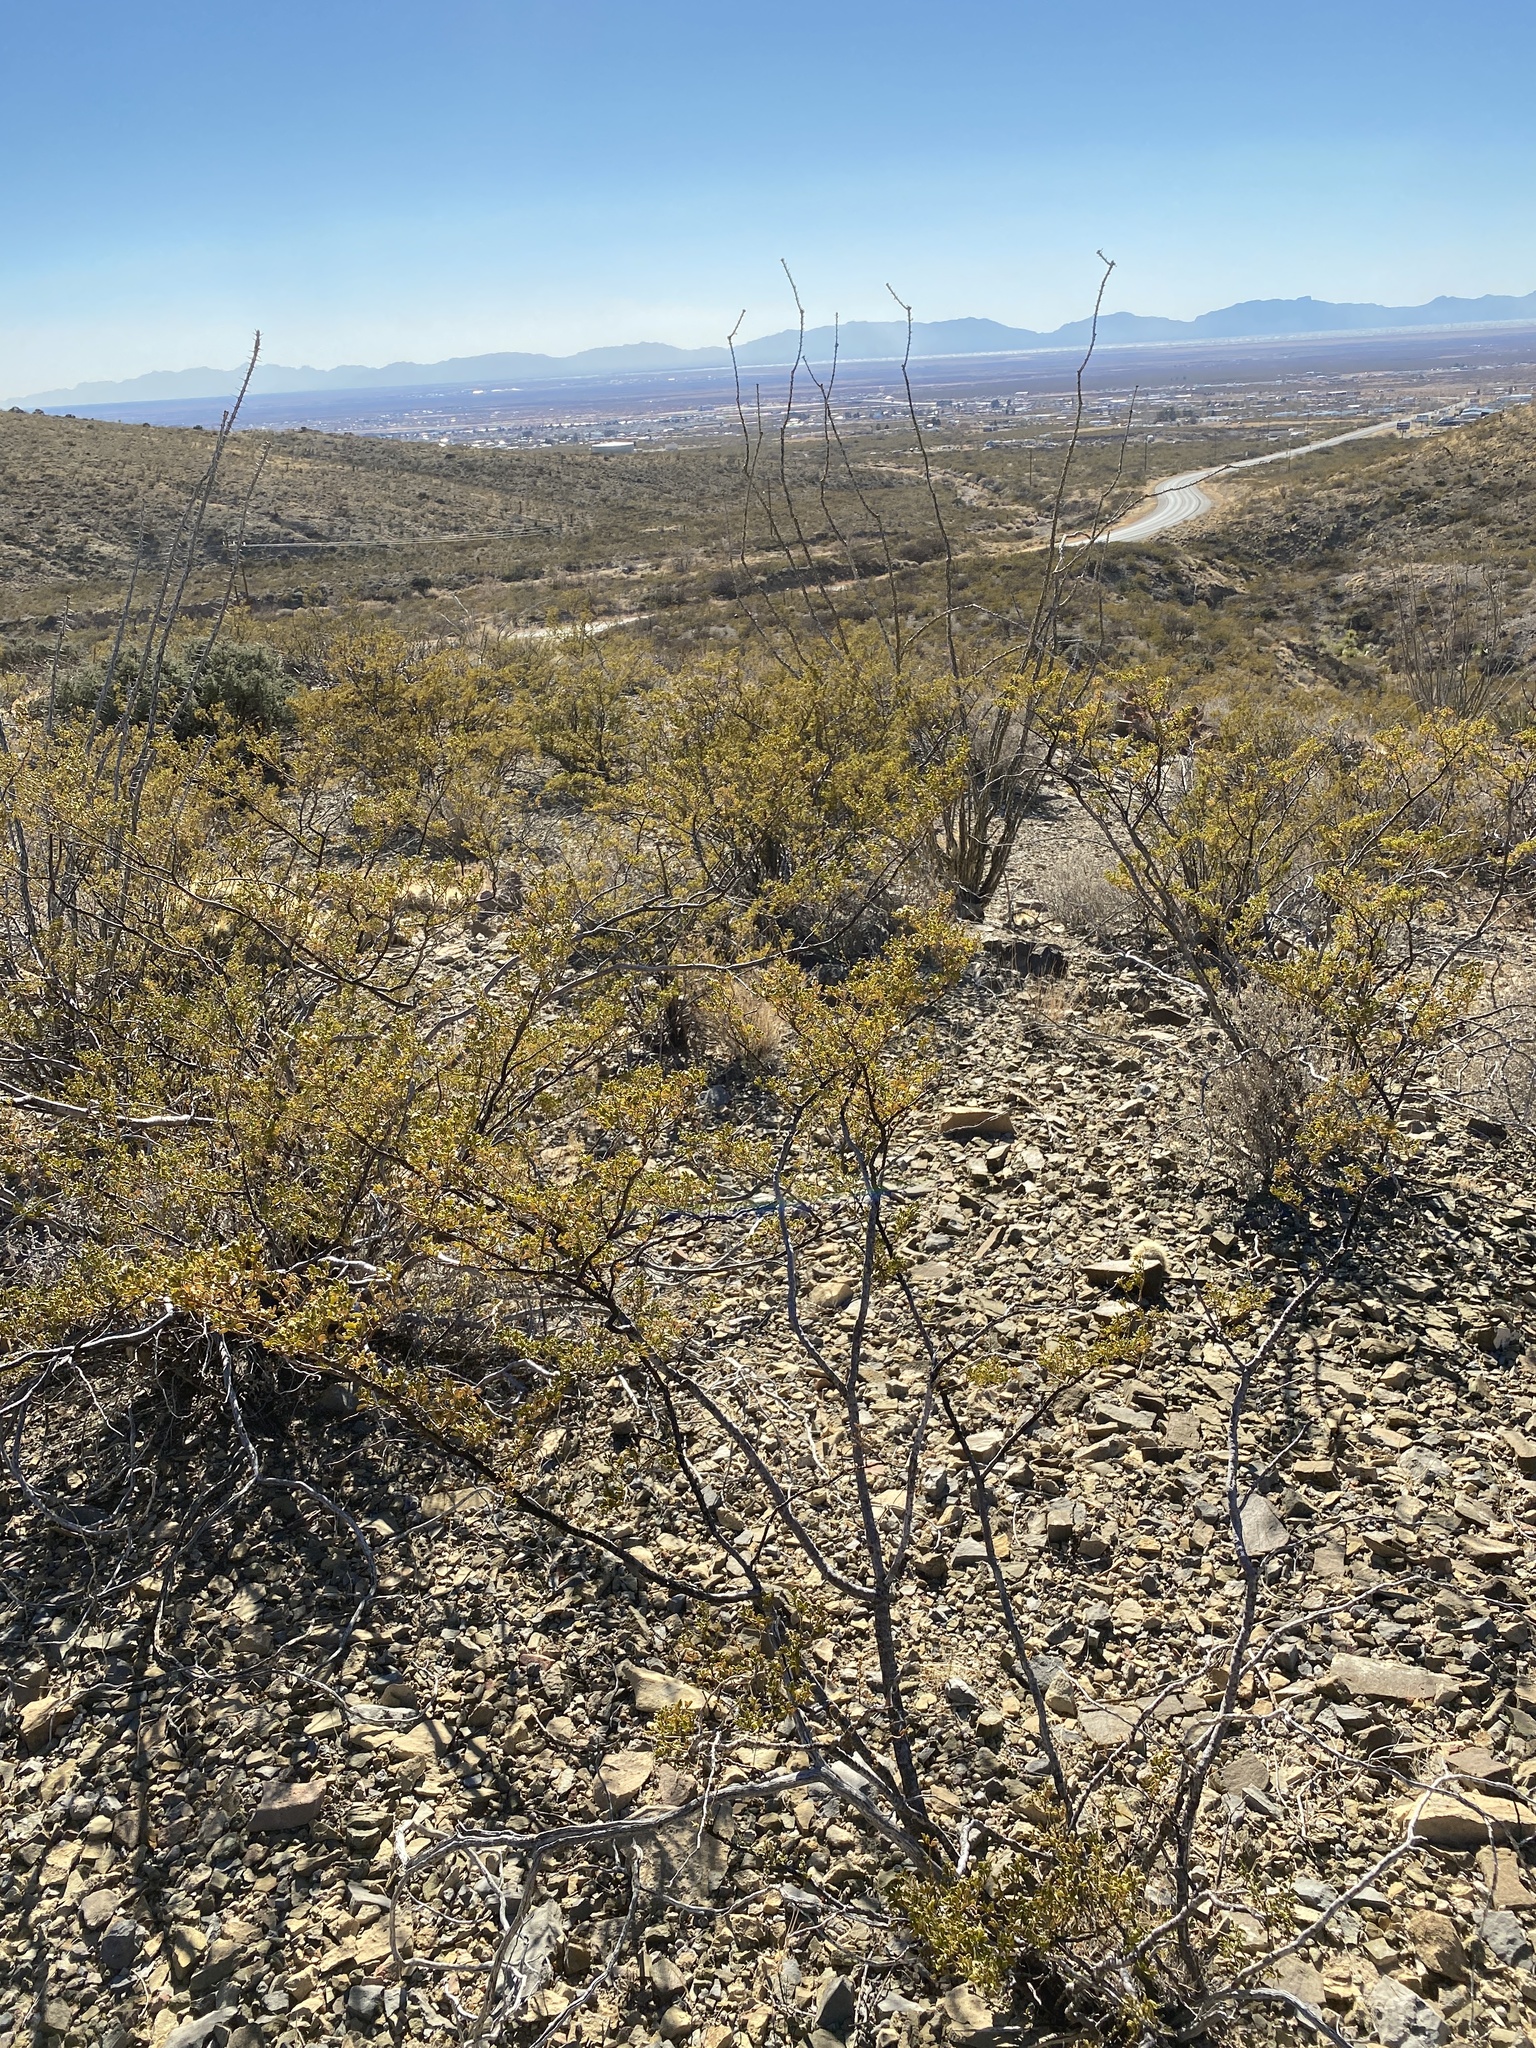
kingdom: Plantae
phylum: Tracheophyta
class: Magnoliopsida
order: Zygophyllales
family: Zygophyllaceae
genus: Larrea
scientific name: Larrea tridentata
